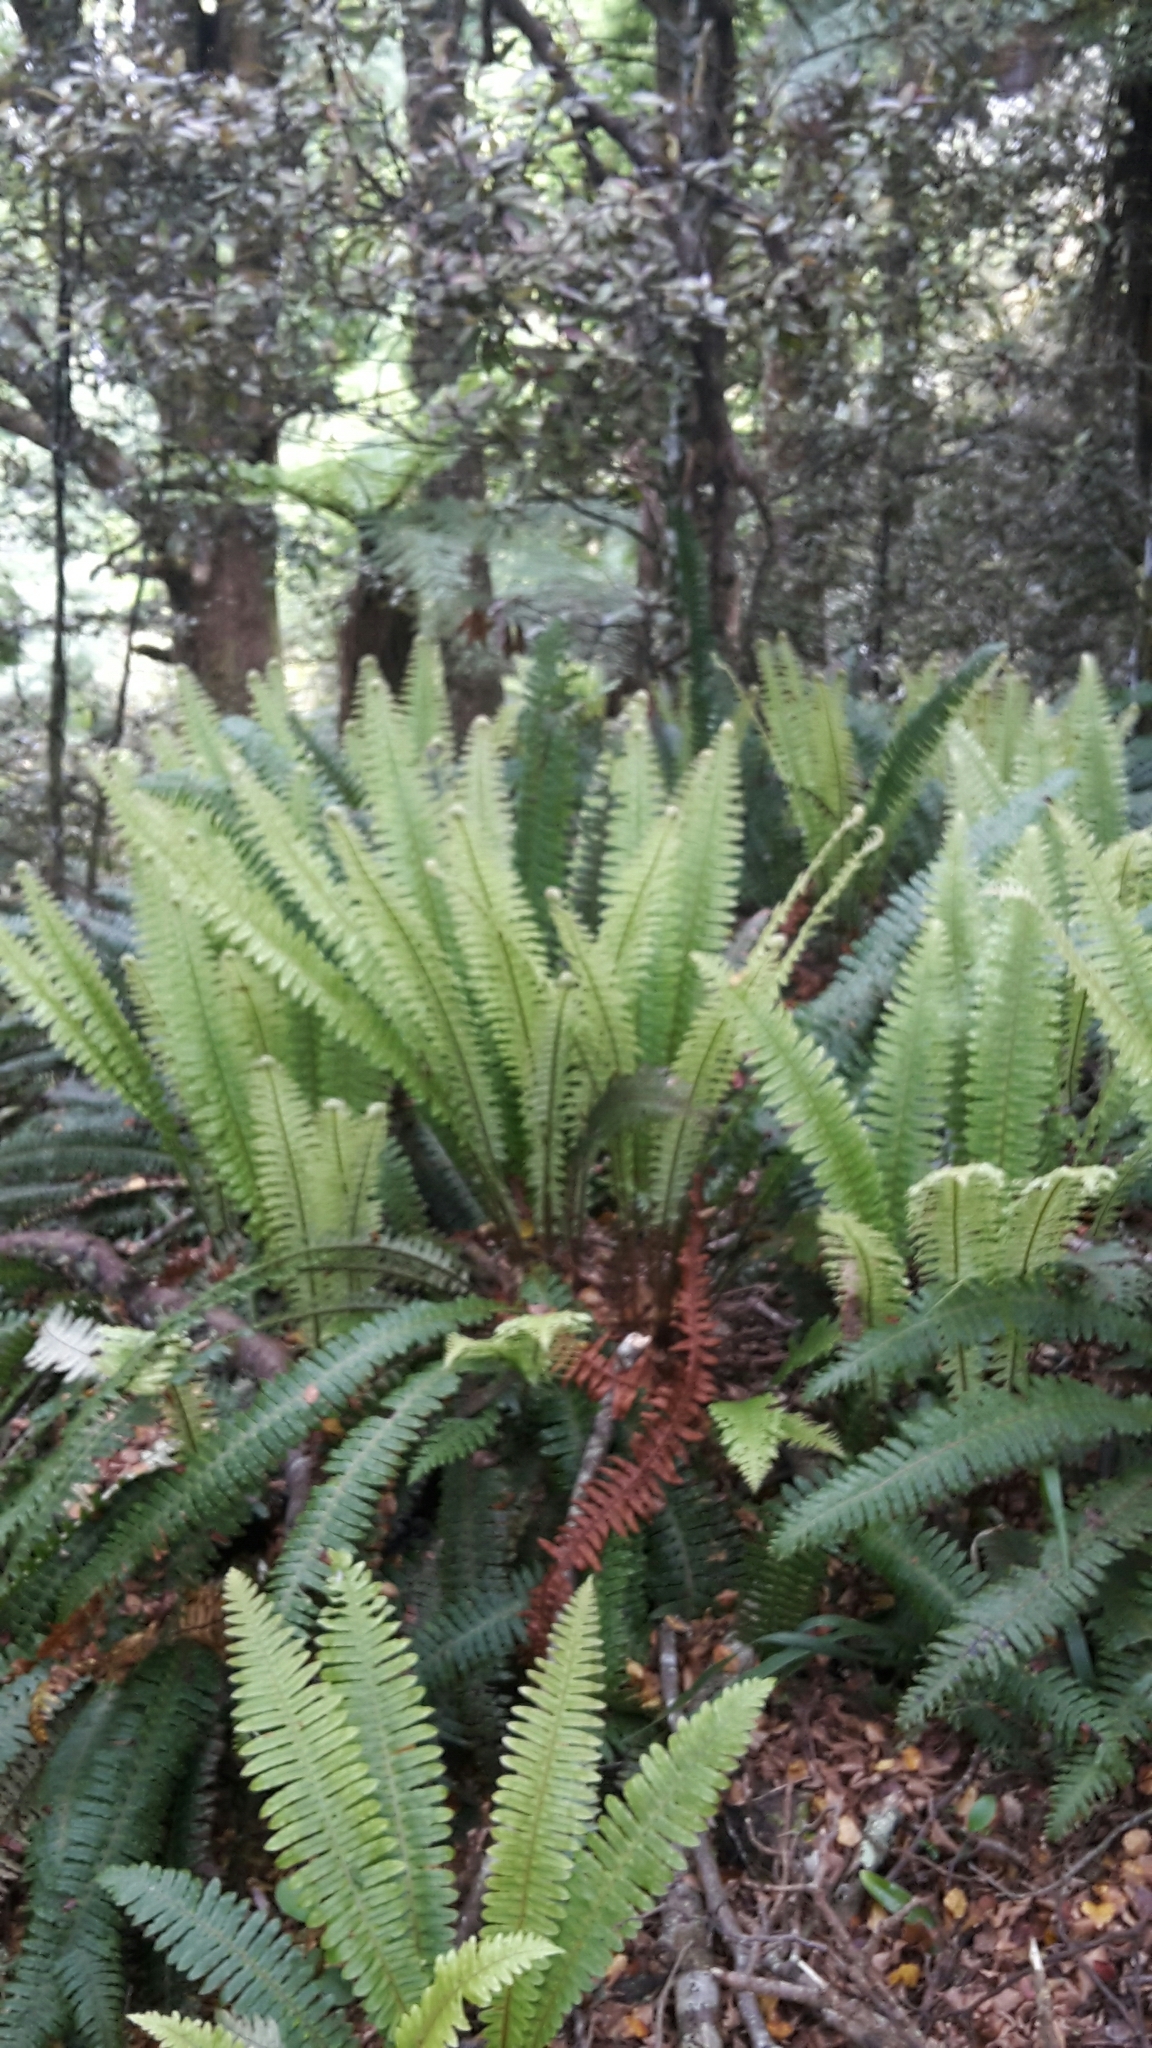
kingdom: Plantae
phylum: Tracheophyta
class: Polypodiopsida
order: Polypodiales
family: Blechnaceae
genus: Lomaria
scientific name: Lomaria discolor
